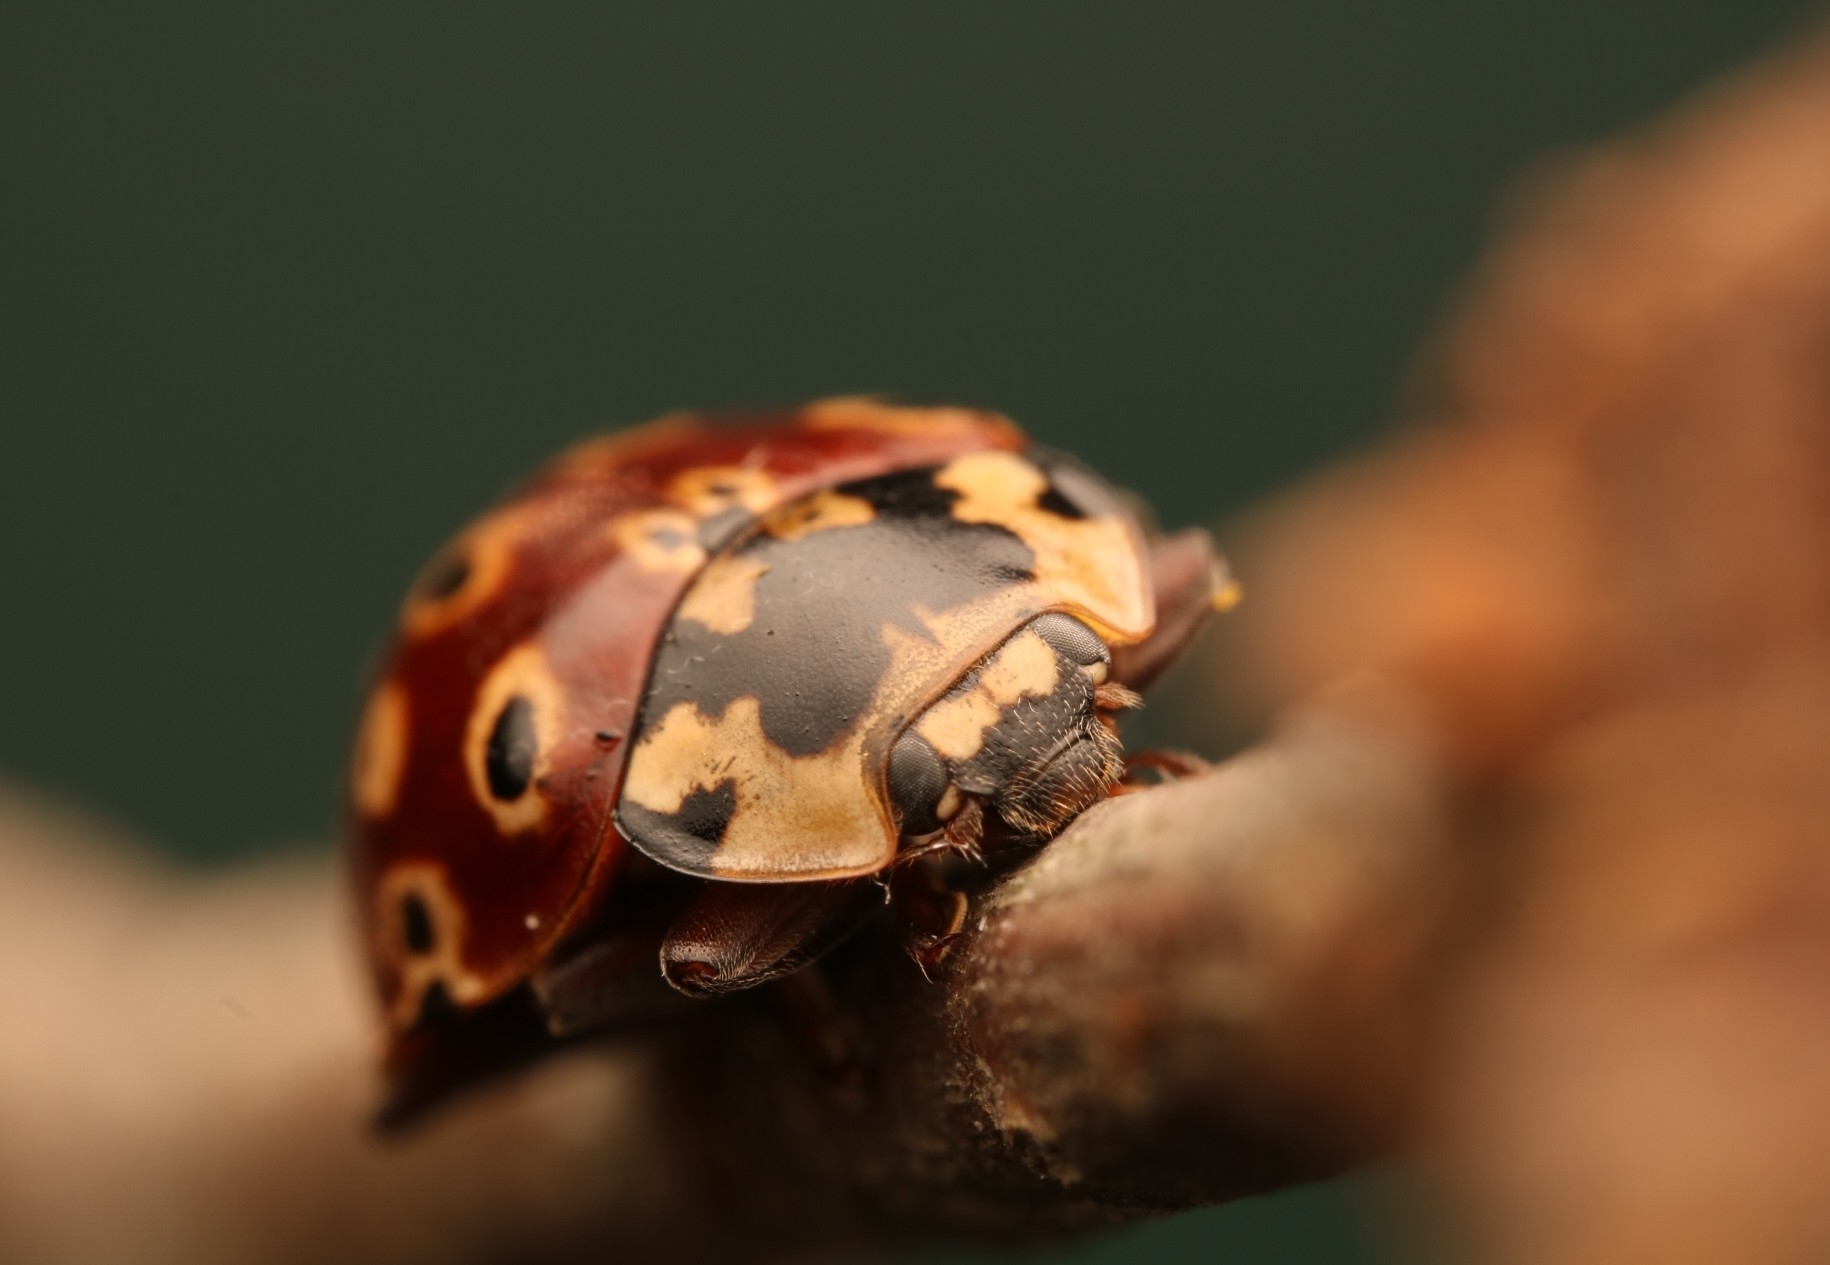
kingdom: Animalia
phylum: Arthropoda
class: Insecta
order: Coleoptera
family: Coccinellidae
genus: Anatis
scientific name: Anatis mali
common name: Eye-spotted lady beetle
